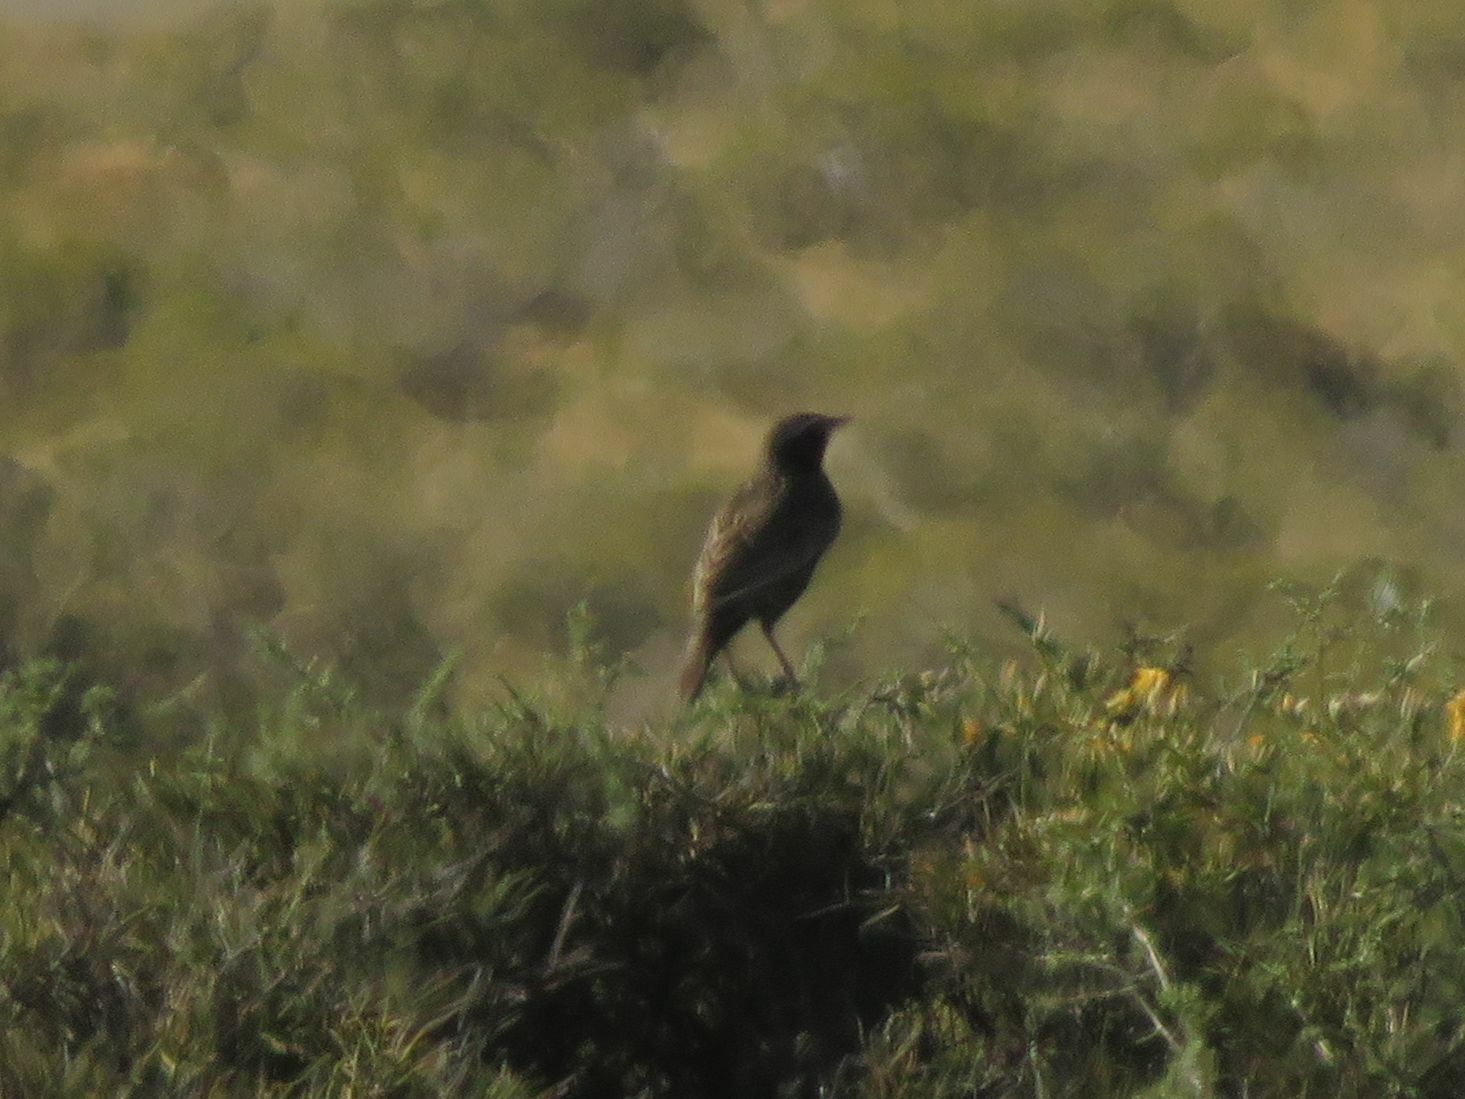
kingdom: Animalia
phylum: Chordata
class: Aves
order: Passeriformes
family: Icteridae
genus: Sturnella
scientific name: Sturnella loyca
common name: Long-tailed meadowlark
